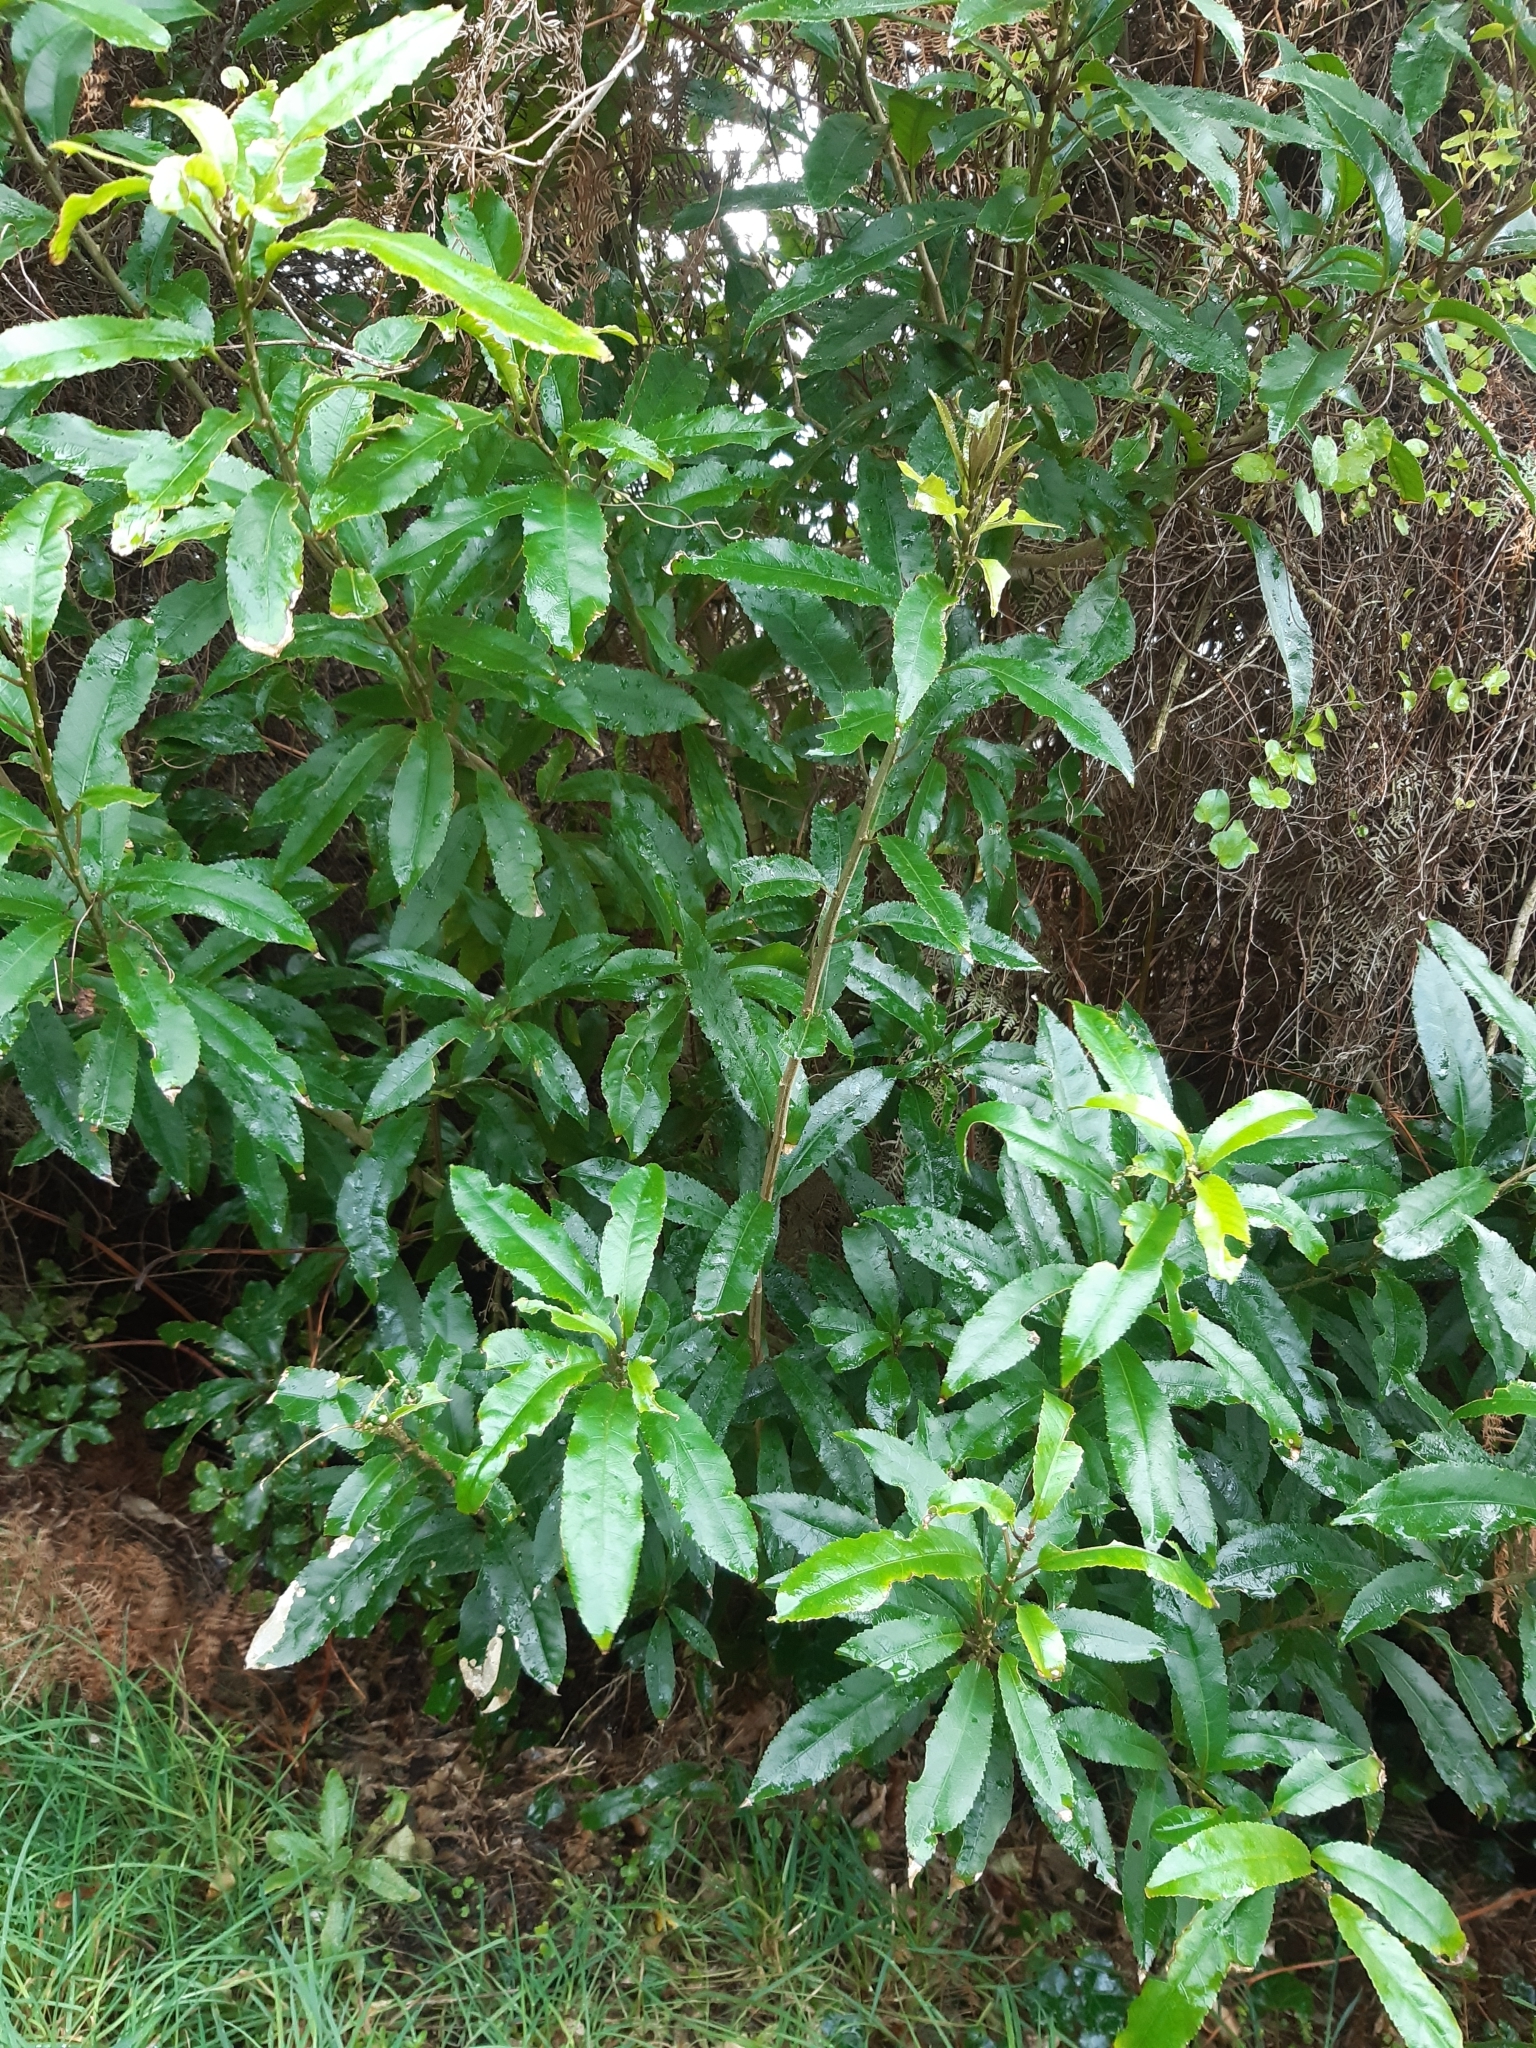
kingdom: Plantae
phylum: Tracheophyta
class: Magnoliopsida
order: Malpighiales
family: Violaceae
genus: Melicytus
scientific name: Melicytus ramiflorus
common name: Mahoe
